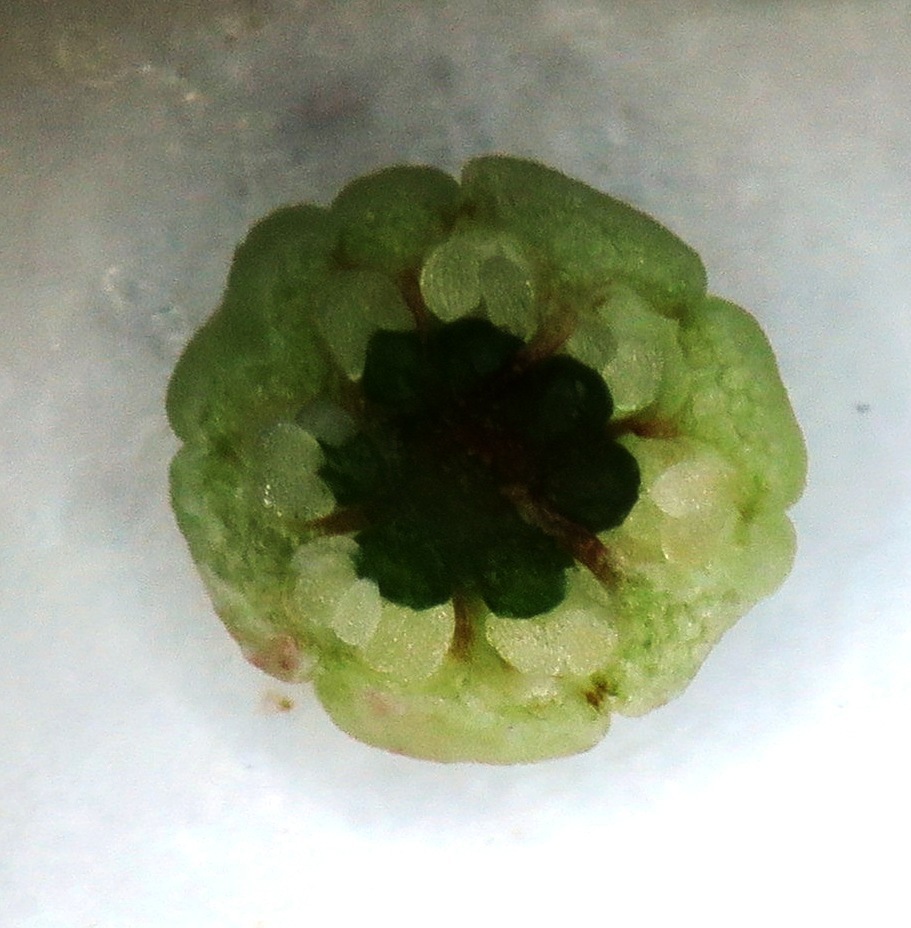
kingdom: Plantae
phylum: Tracheophyta
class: Magnoliopsida
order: Ericales
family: Ericaceae
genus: Erica
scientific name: Erica perspicua
